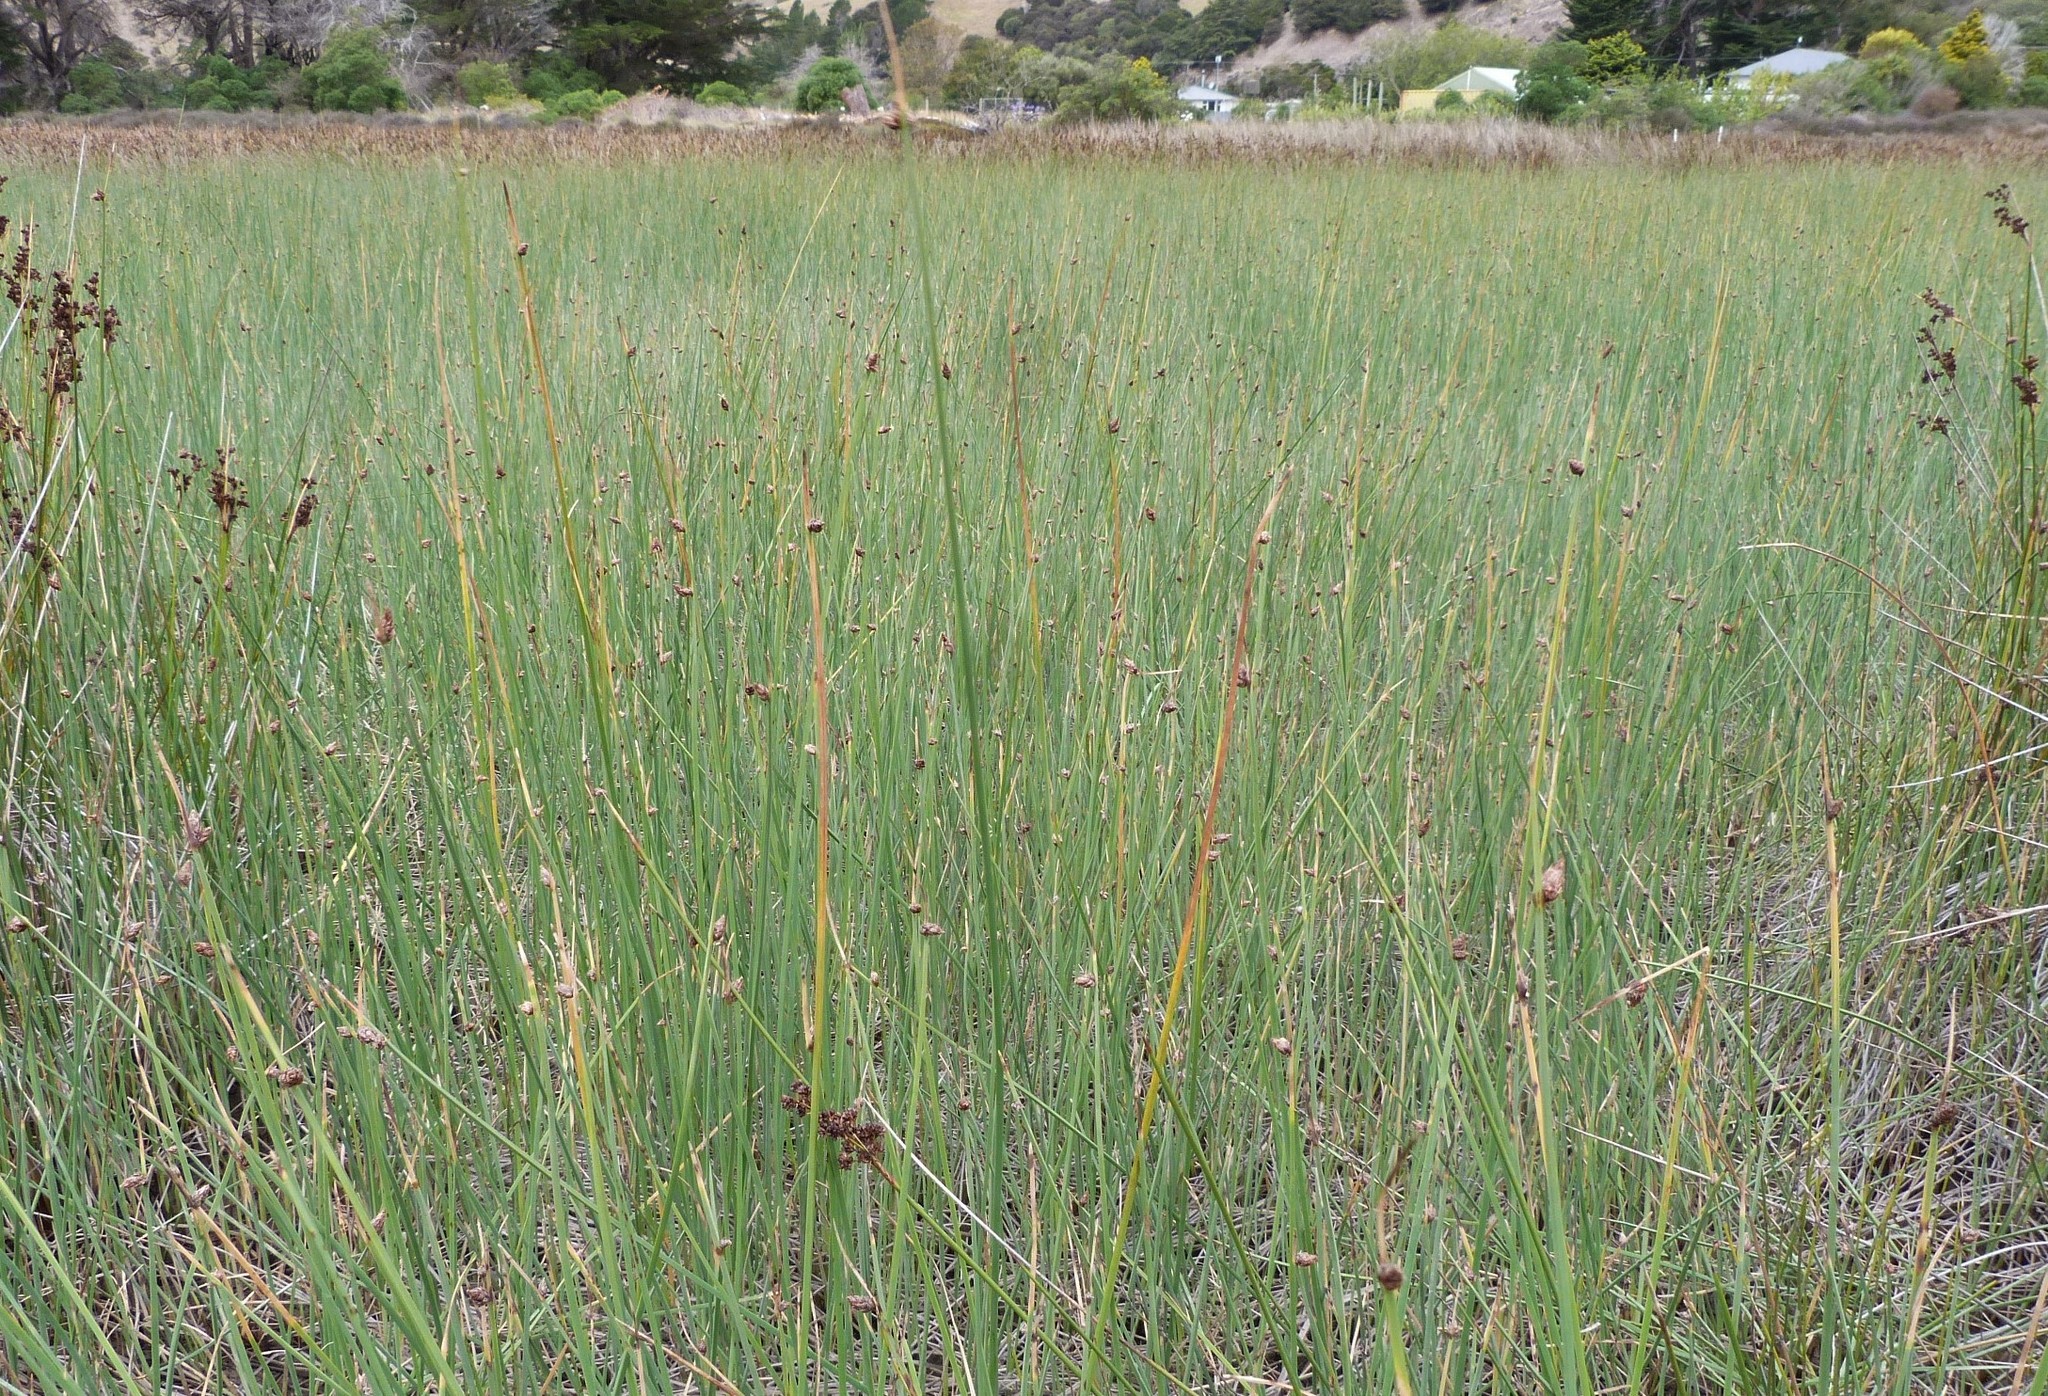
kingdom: Plantae
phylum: Tracheophyta
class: Liliopsida
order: Poales
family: Cyperaceae
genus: Schoenoplectus
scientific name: Schoenoplectus pungens
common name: Sharp club-rush
